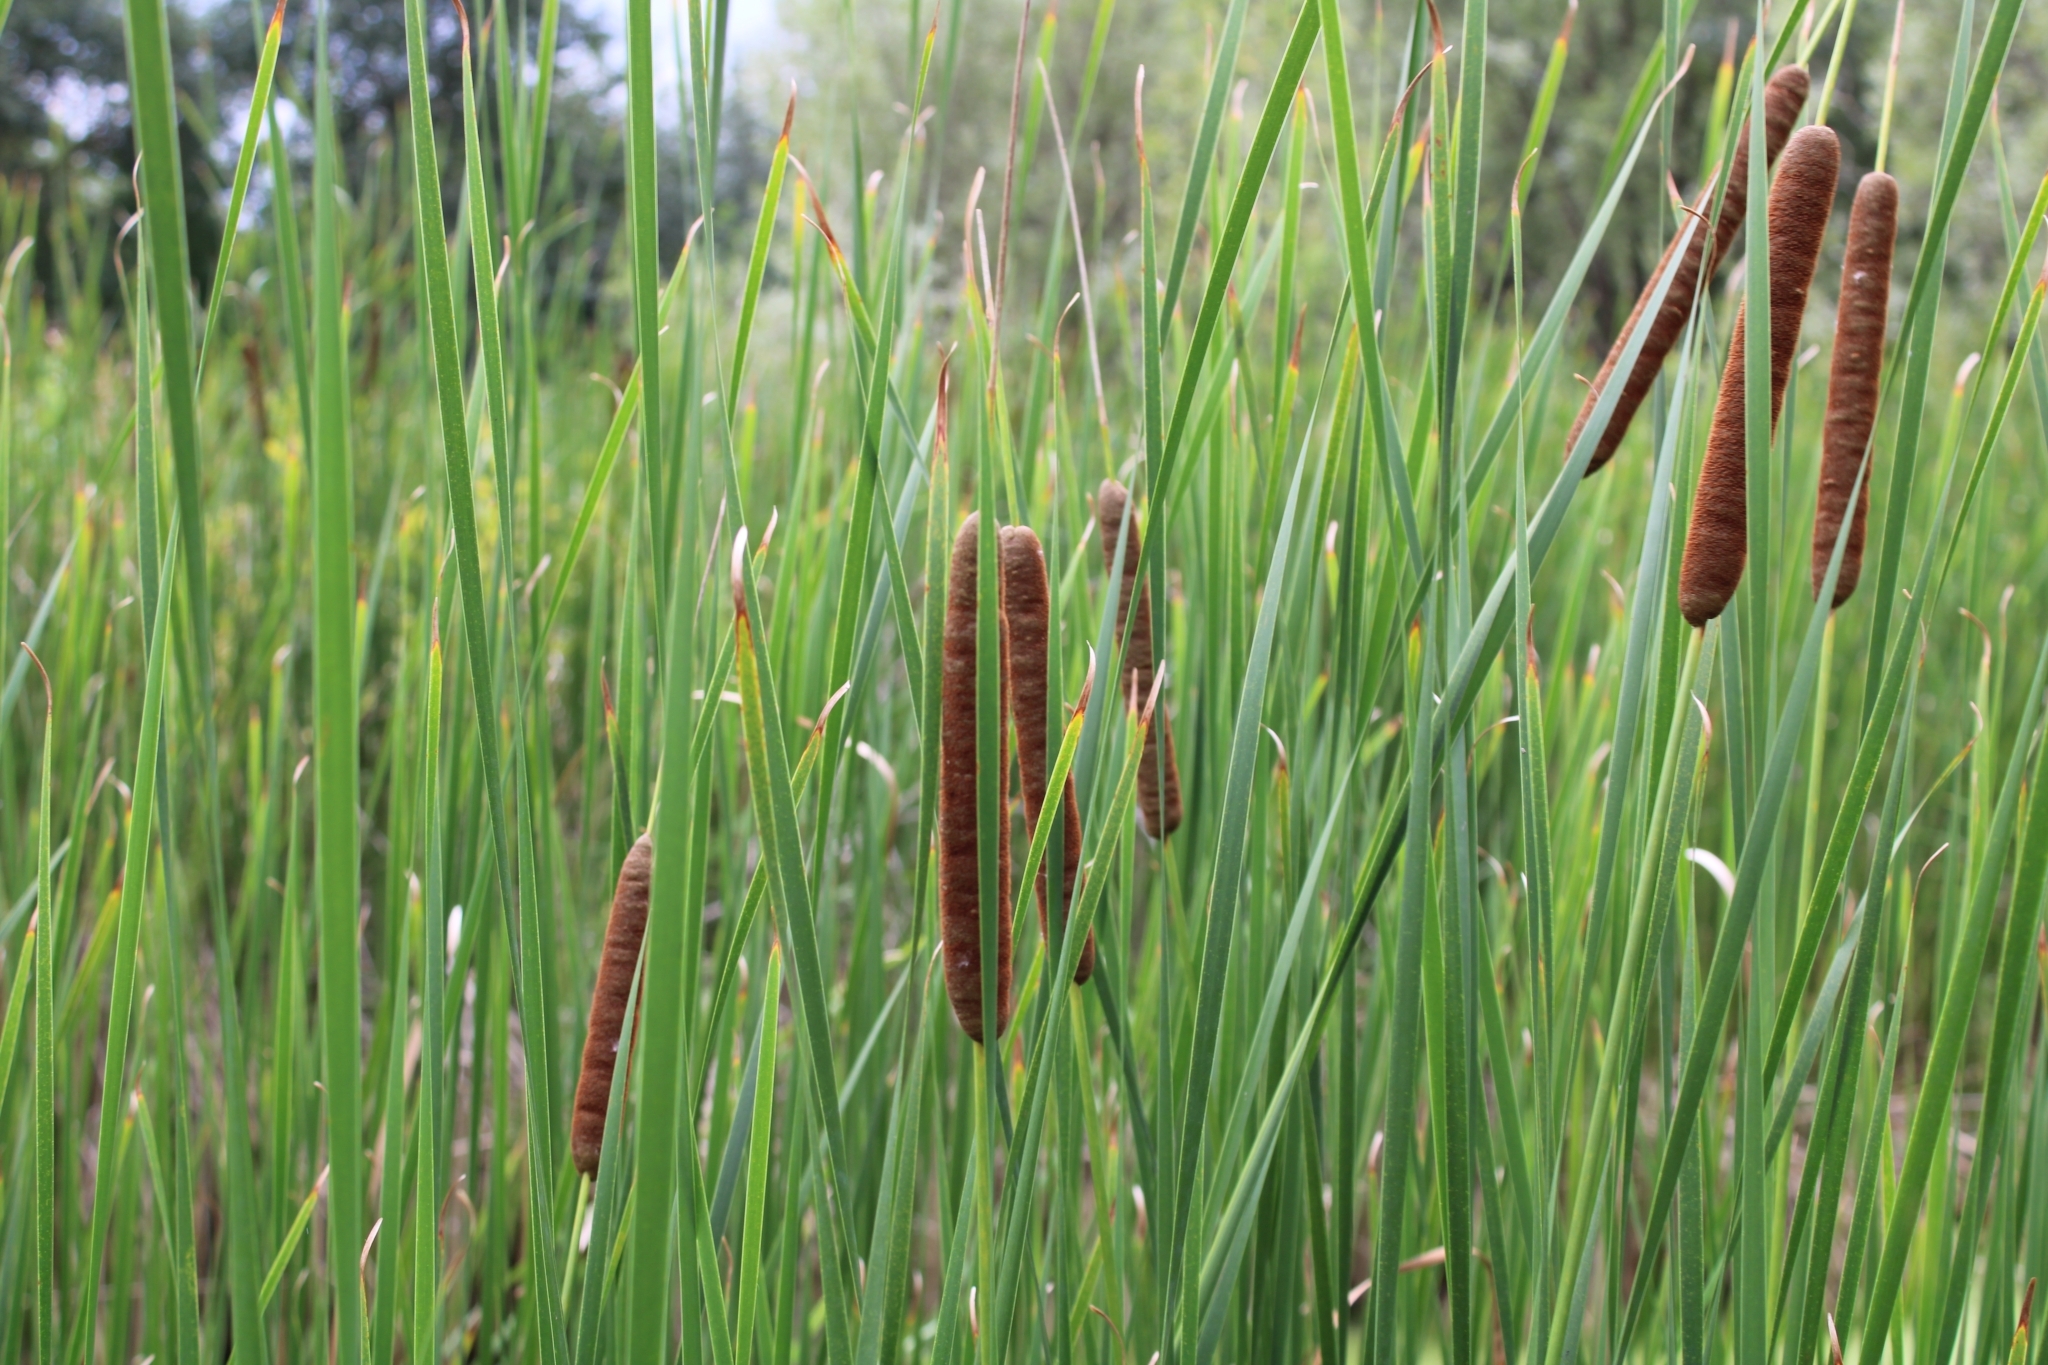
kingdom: Plantae
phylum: Tracheophyta
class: Liliopsida
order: Poales
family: Typhaceae
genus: Typha
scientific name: Typha angustifolia
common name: Lesser bulrush
